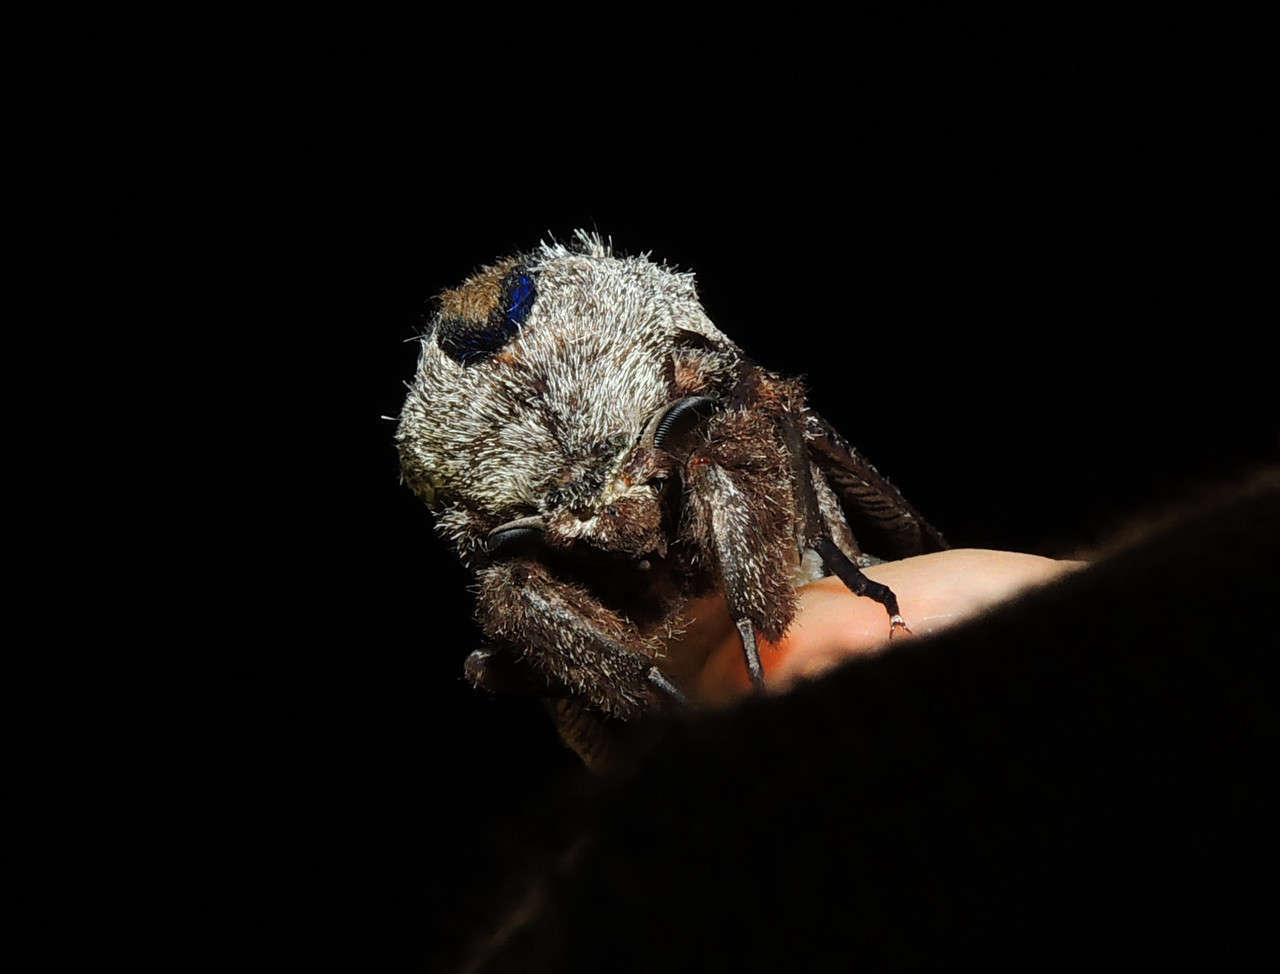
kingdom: Animalia
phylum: Arthropoda
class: Insecta
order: Lepidoptera
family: Cossidae
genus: Endoxyla
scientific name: Endoxyla encalypti
